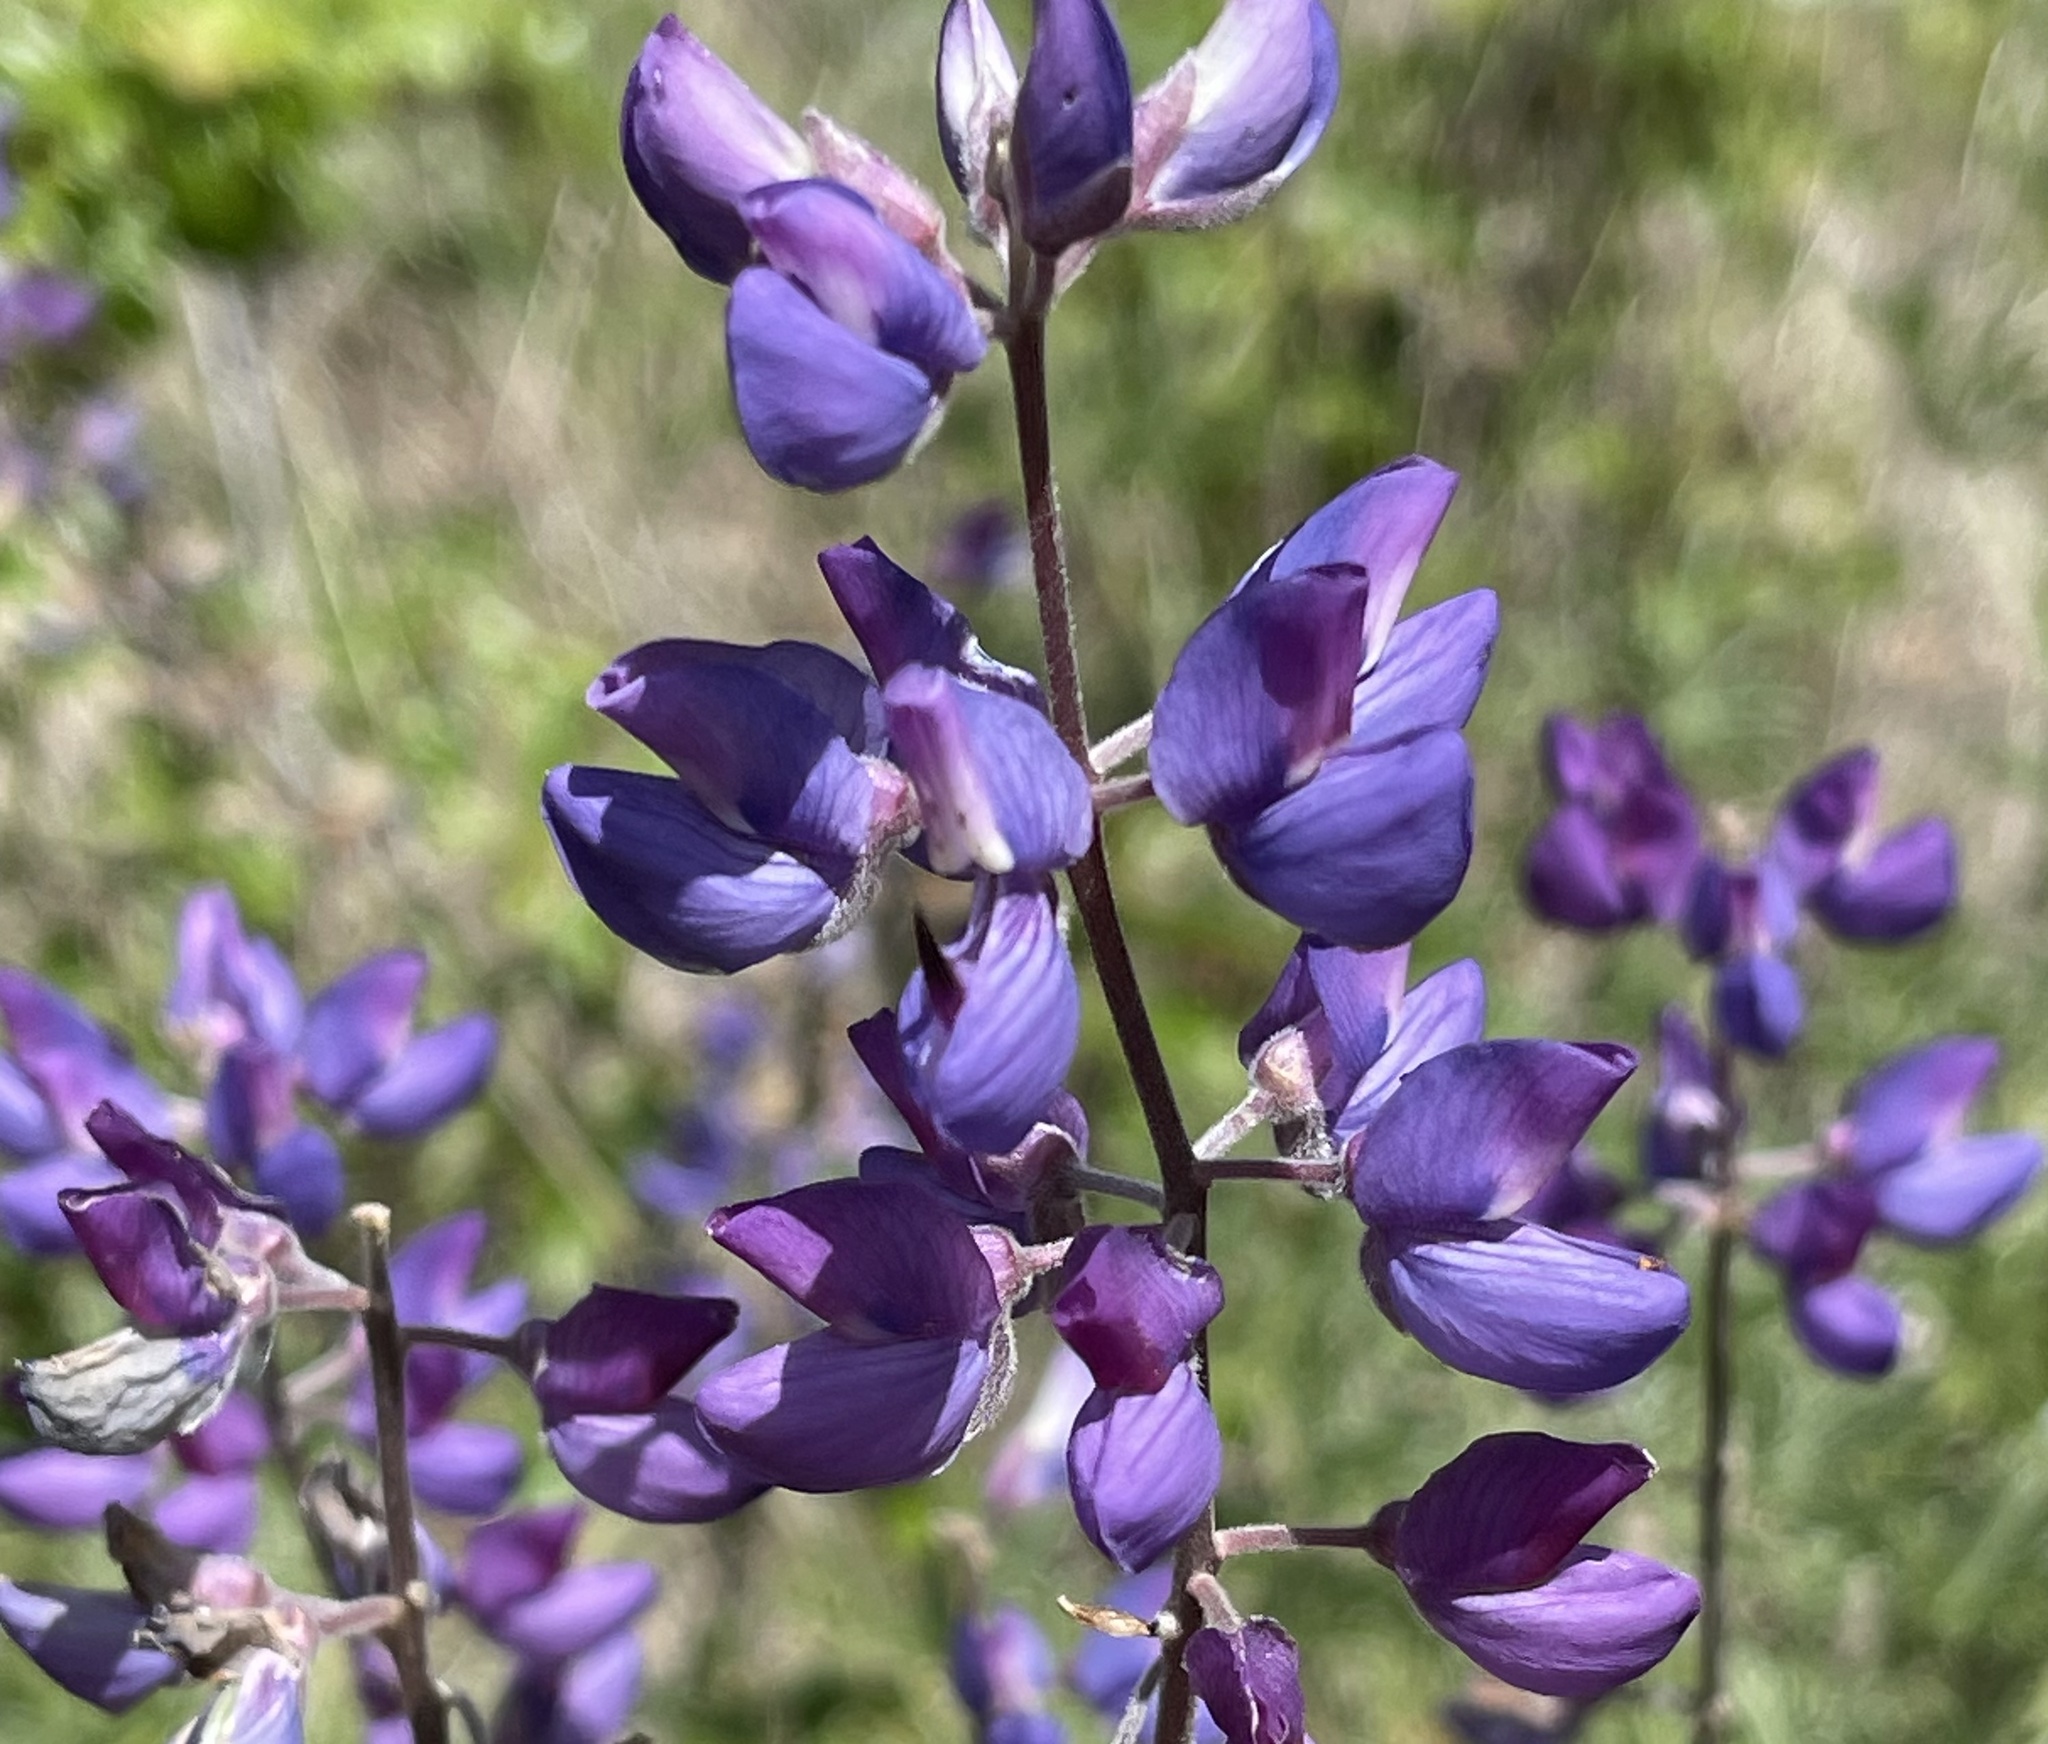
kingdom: Plantae
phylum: Tracheophyta
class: Magnoliopsida
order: Fabales
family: Fabaceae
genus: Lupinus
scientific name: Lupinus albifrons
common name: Foothill lupine
